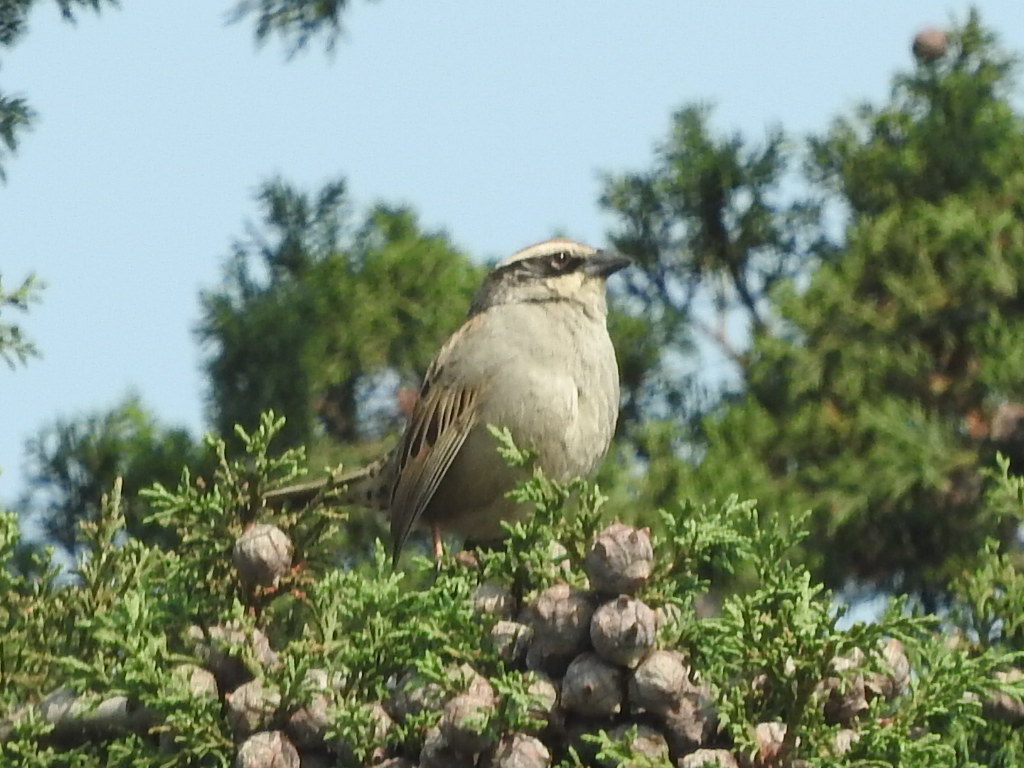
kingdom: Animalia
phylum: Chordata
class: Aves
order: Passeriformes
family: Passerellidae
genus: Oriturus
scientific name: Oriturus superciliosus
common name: Striped sparrow
